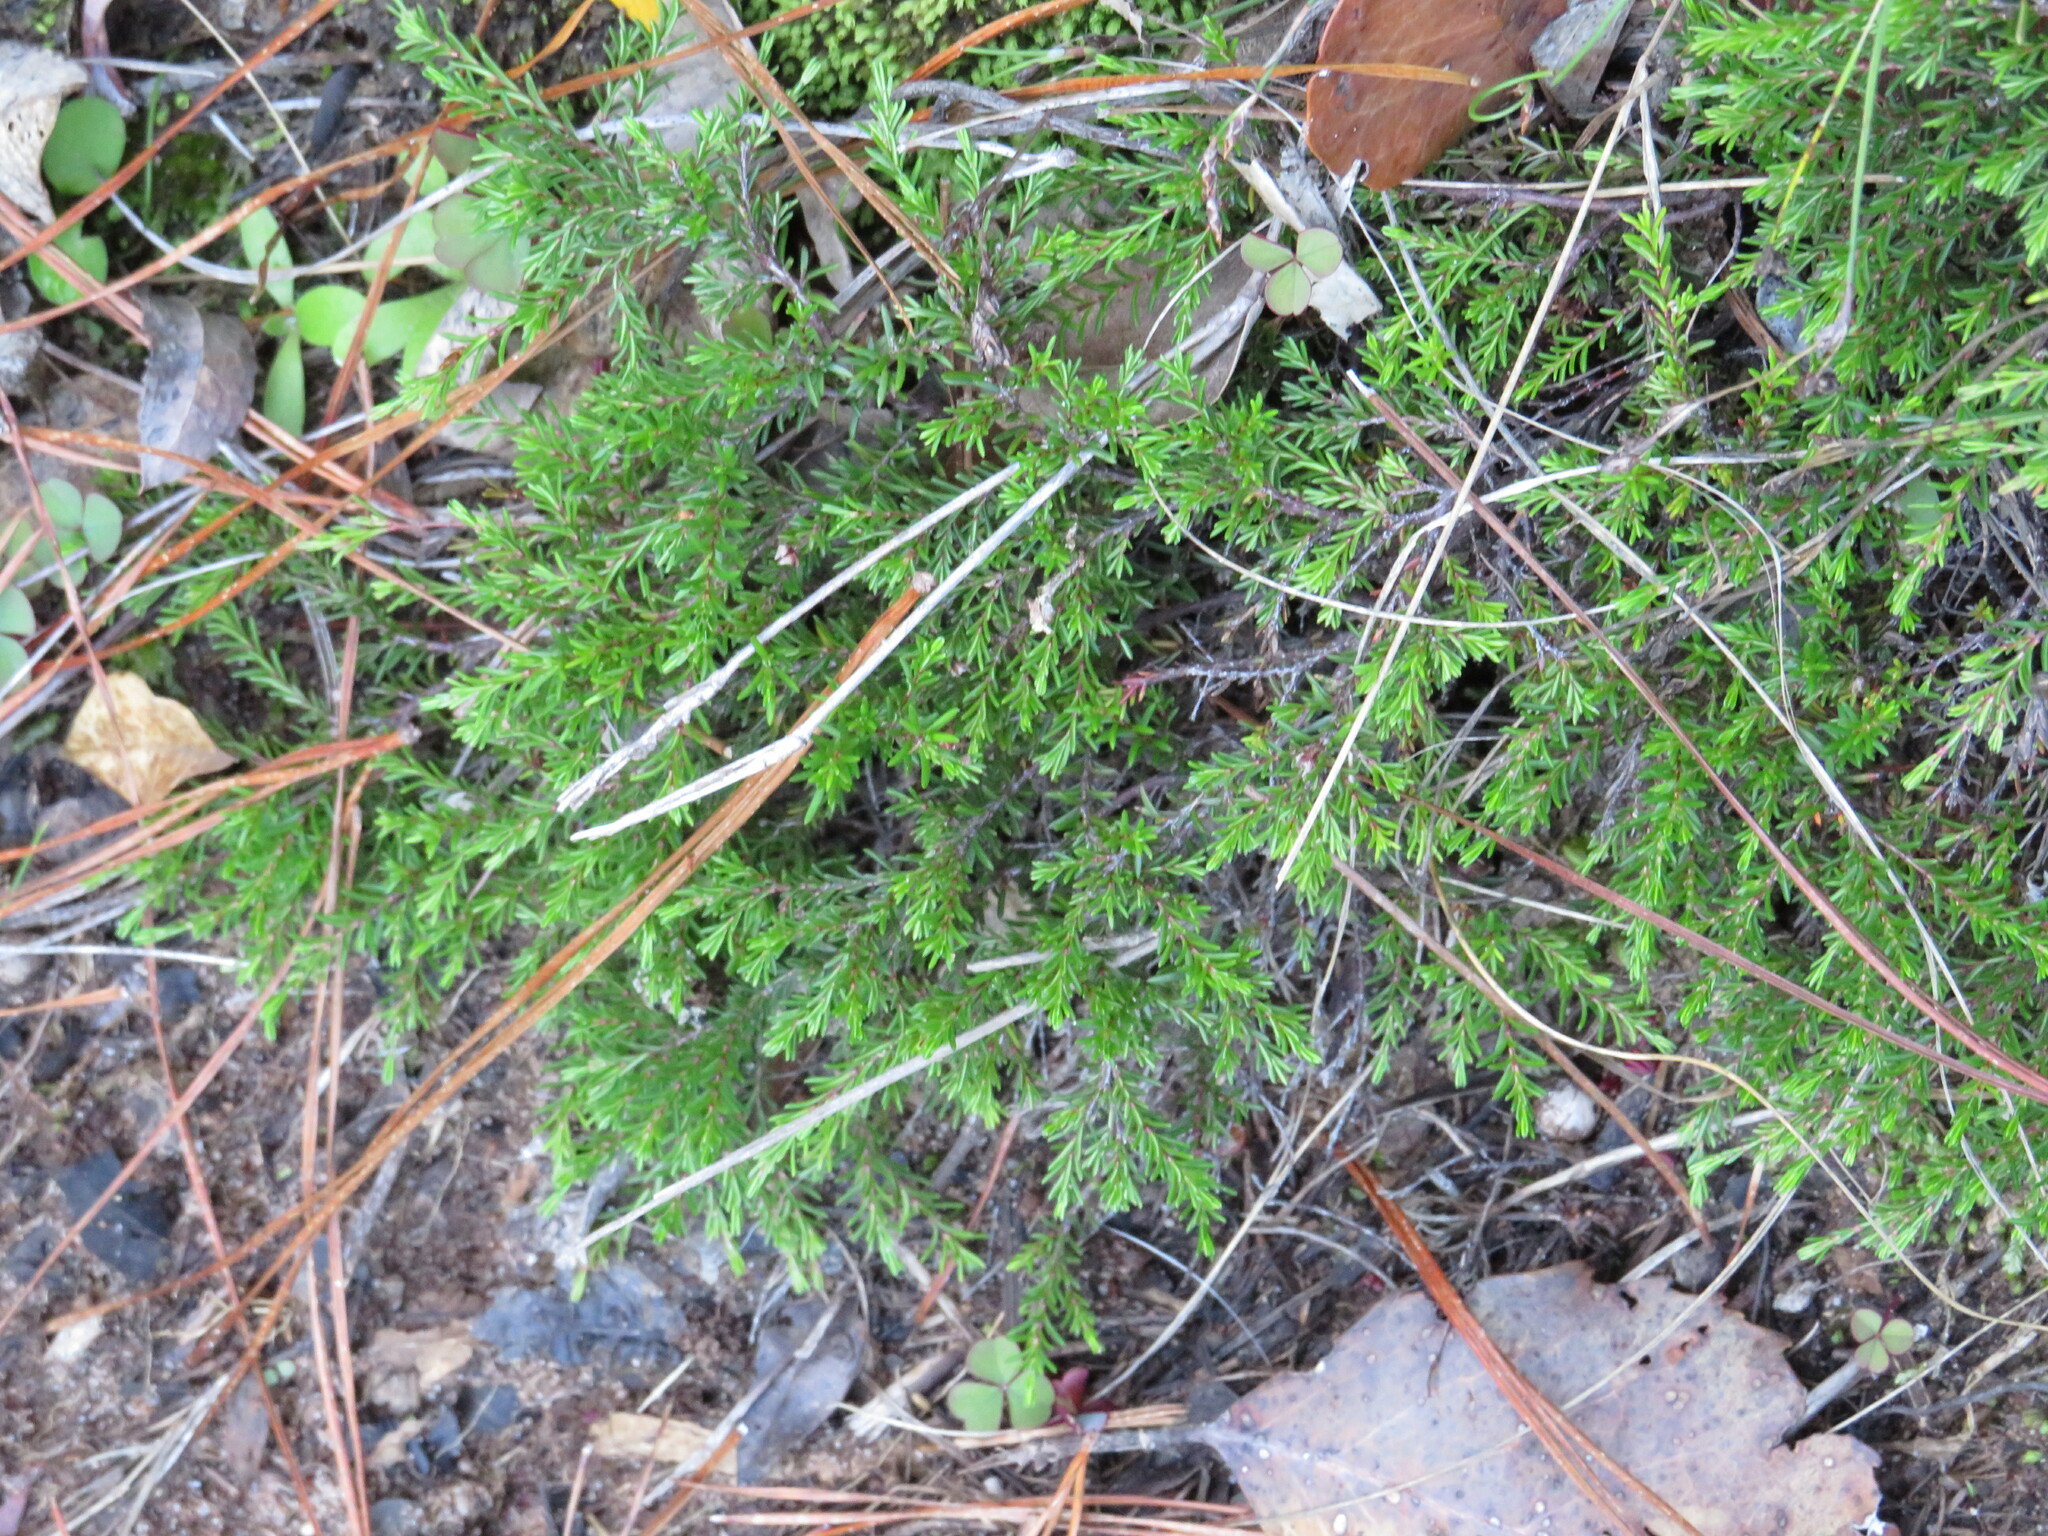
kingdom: Plantae
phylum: Tracheophyta
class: Magnoliopsida
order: Ericales
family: Ericaceae
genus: Erica
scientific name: Erica tenuis
